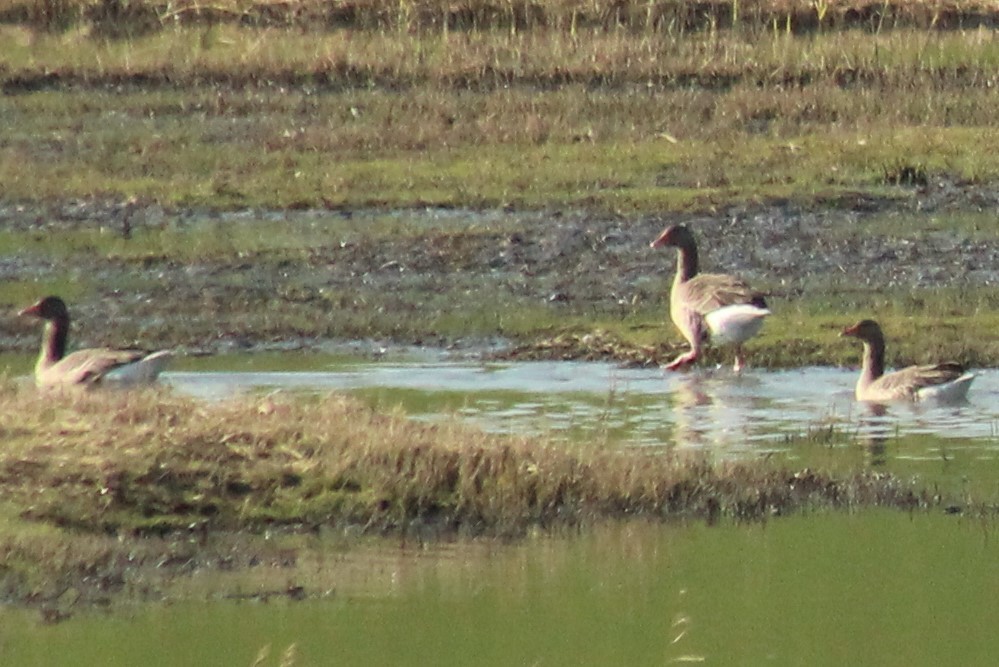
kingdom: Animalia
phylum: Chordata
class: Aves
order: Anseriformes
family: Anatidae
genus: Anser
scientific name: Anser anser
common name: Greylag goose
